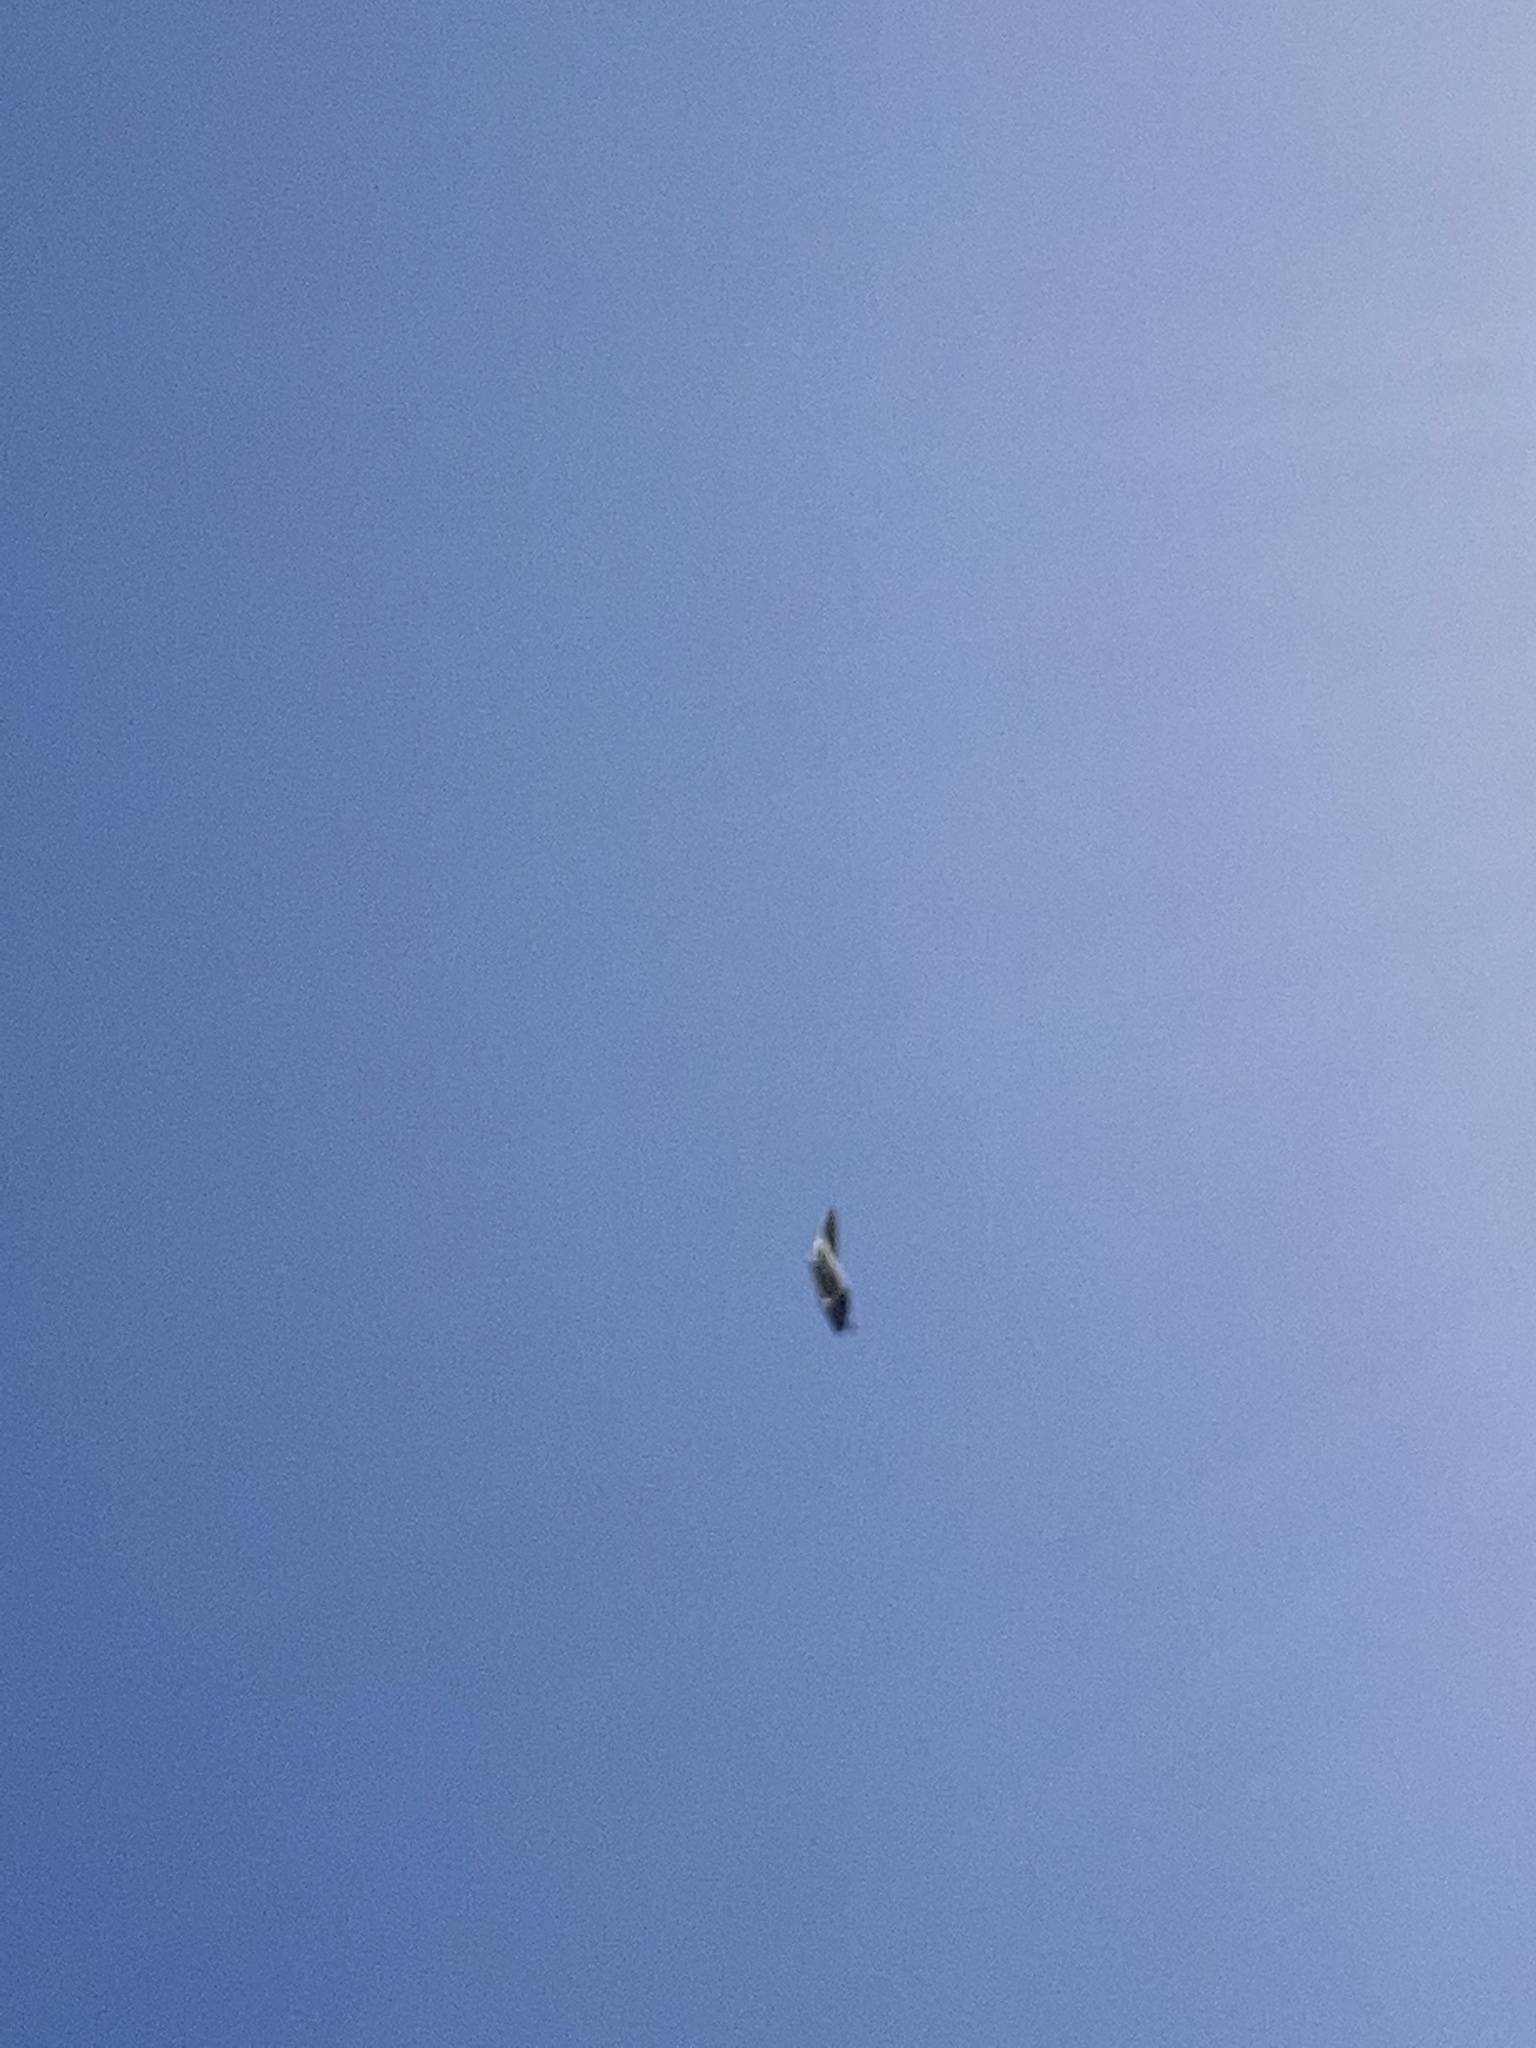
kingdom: Animalia
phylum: Chordata
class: Aves
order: Charadriiformes
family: Laridae
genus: Larus
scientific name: Larus dominicanus
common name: Kelp gull
